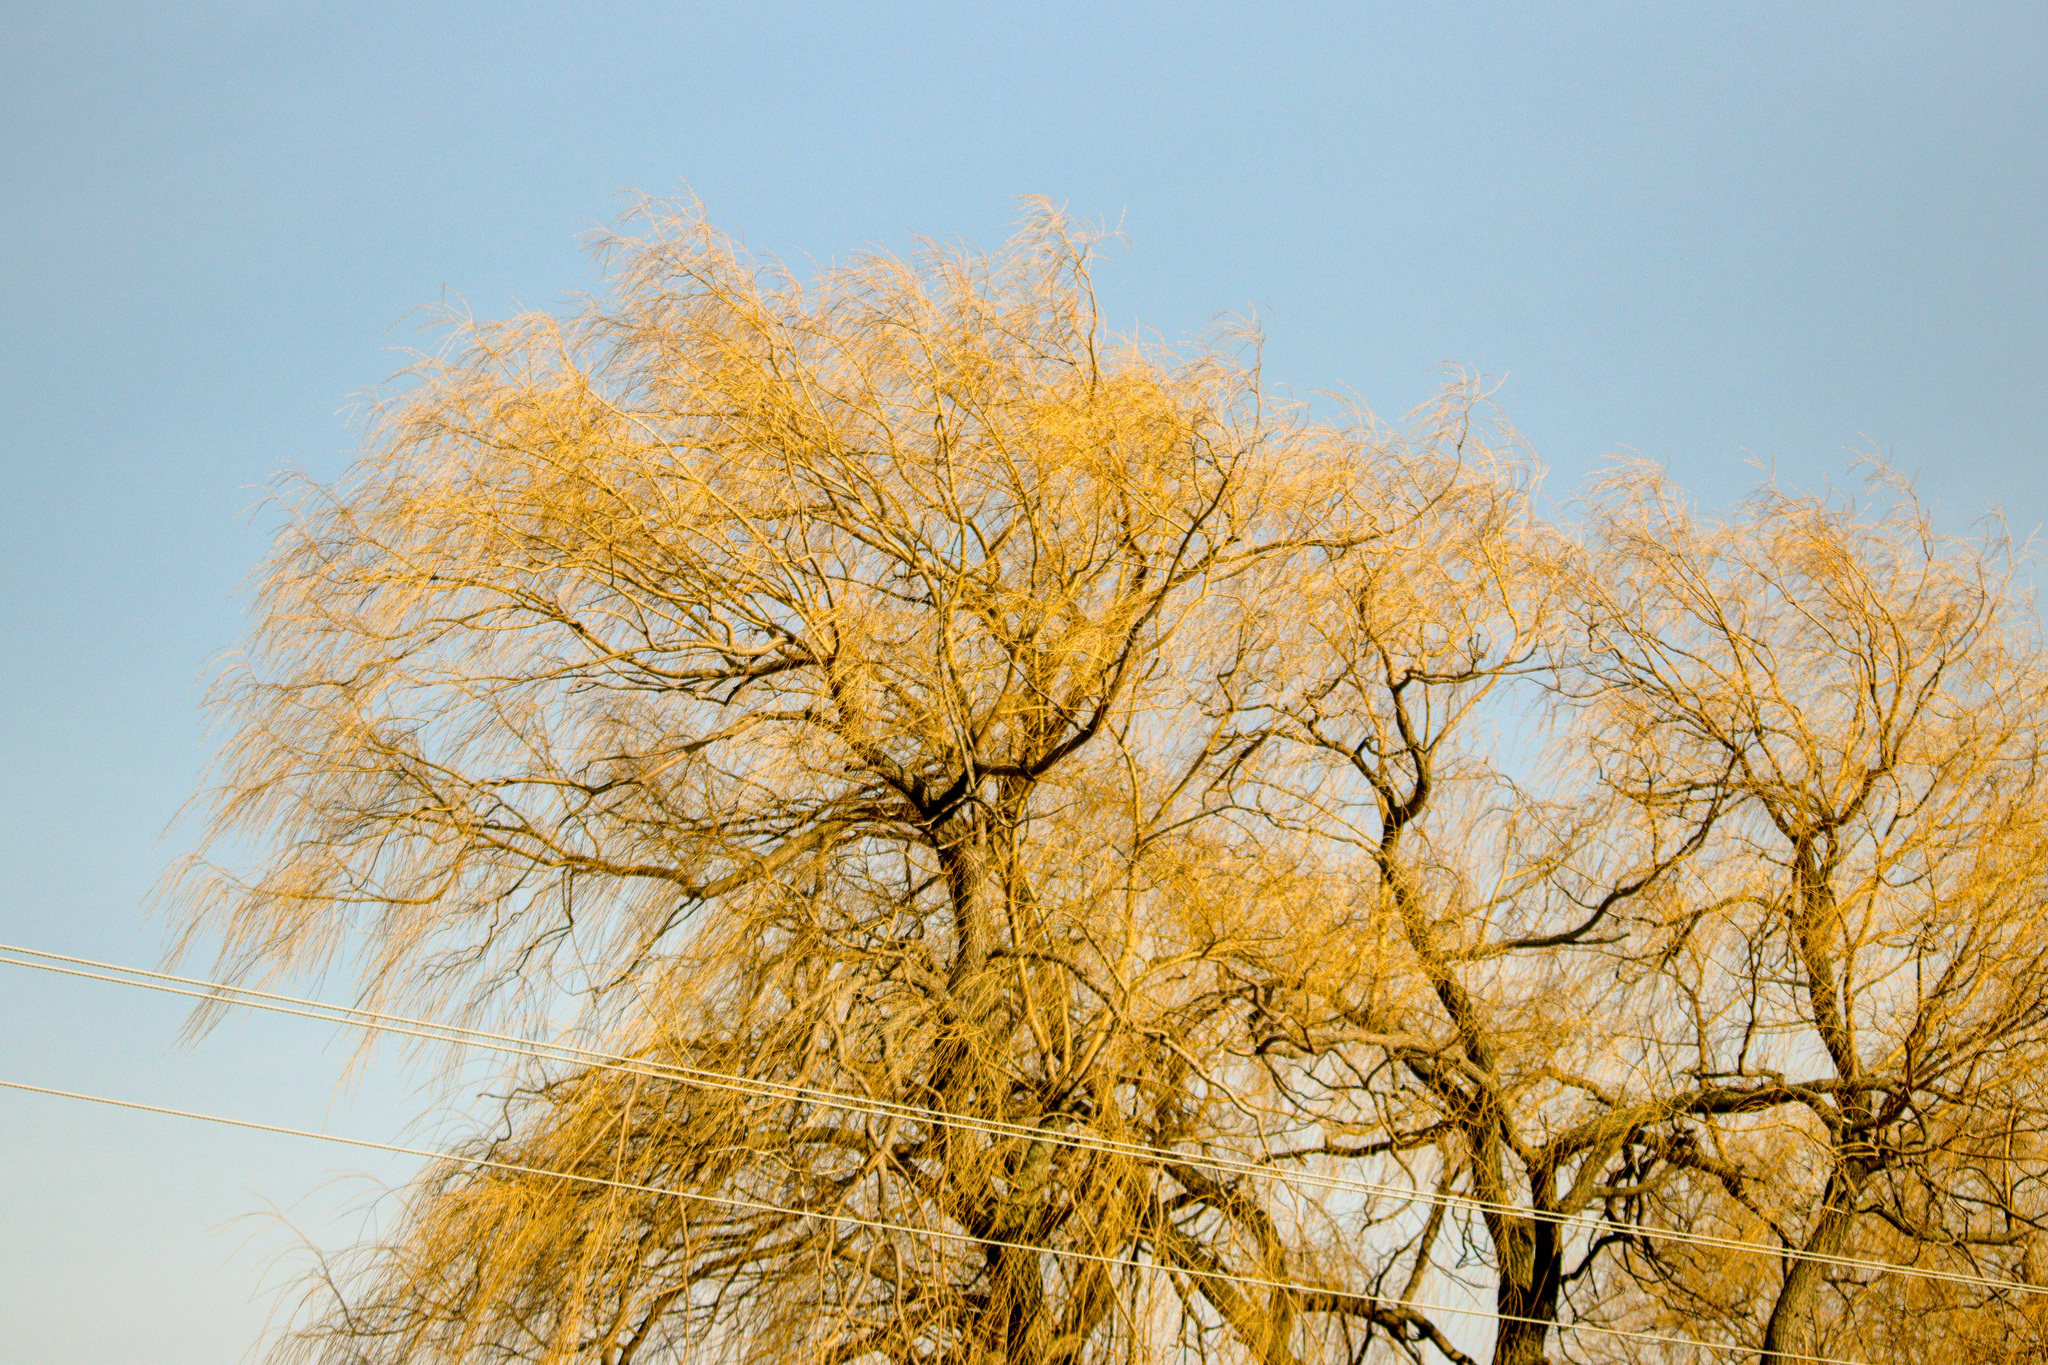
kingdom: Plantae
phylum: Tracheophyta
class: Magnoliopsida
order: Malpighiales
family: Salicaceae
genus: Salix
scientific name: Salix pendulina
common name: Wisconsin weeping willow
